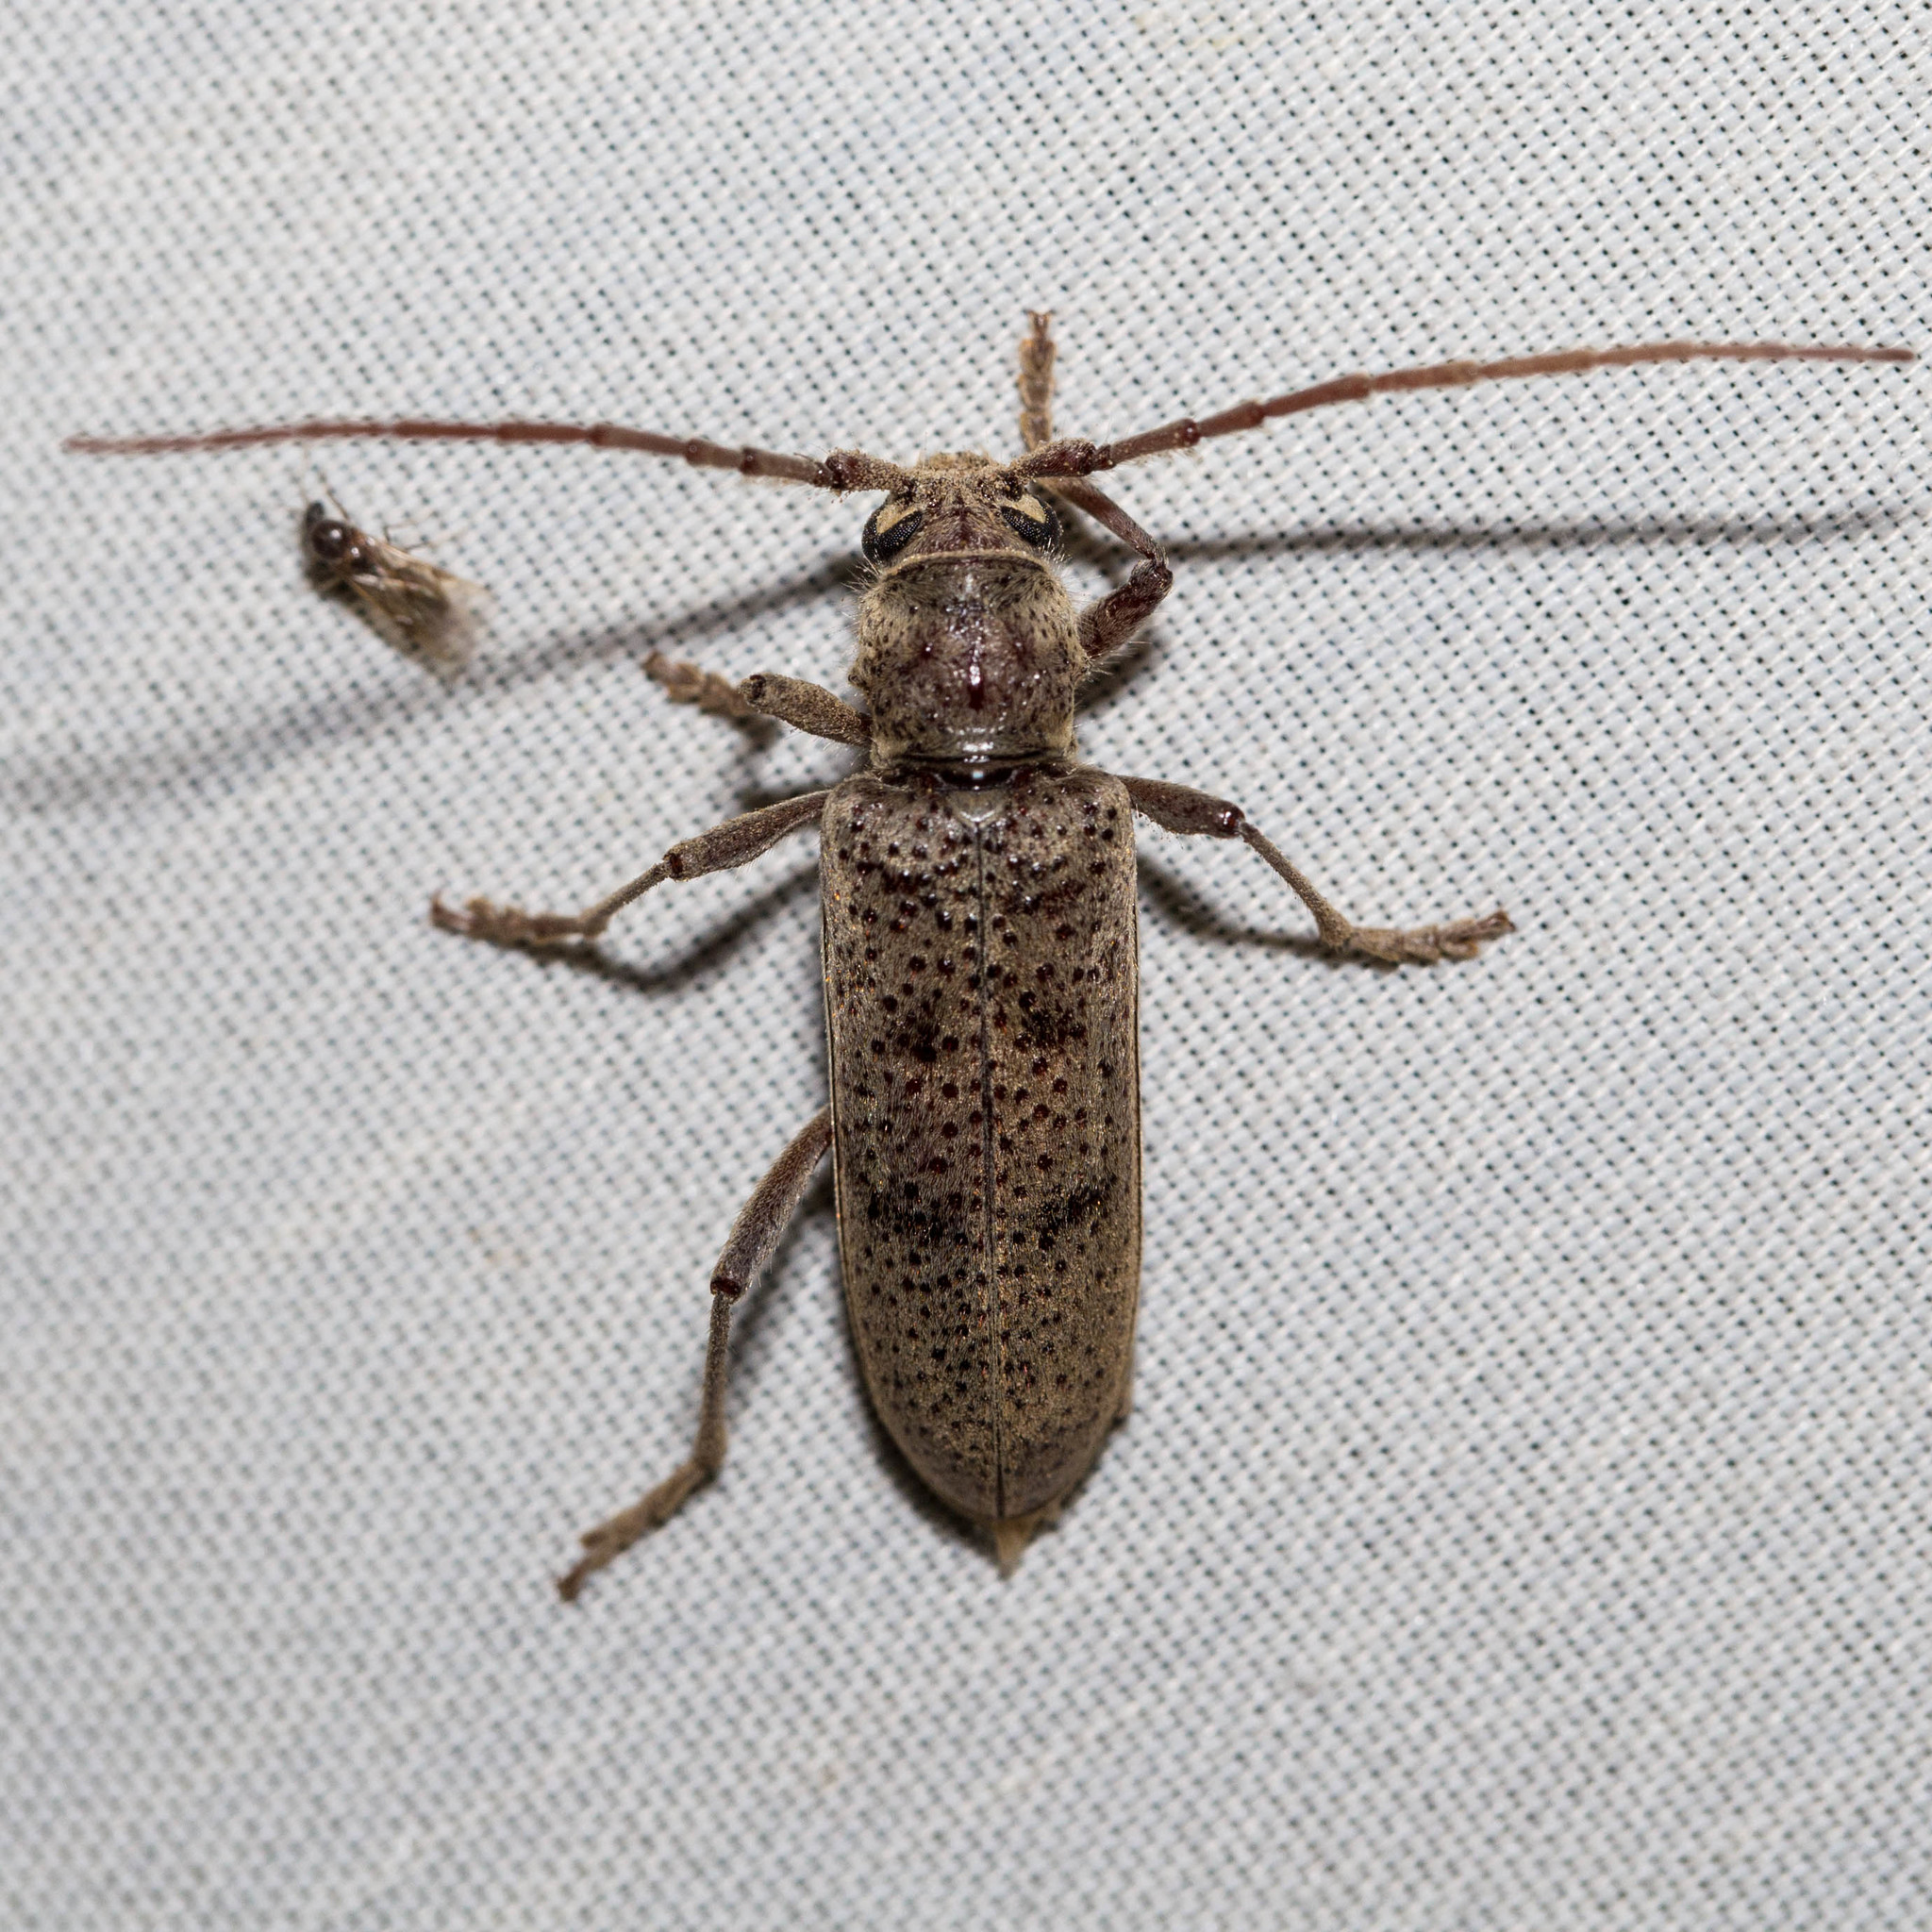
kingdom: Animalia
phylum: Arthropoda
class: Insecta
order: Coleoptera
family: Cerambycidae
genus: Brothylus
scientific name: Brothylus gemmulatus
